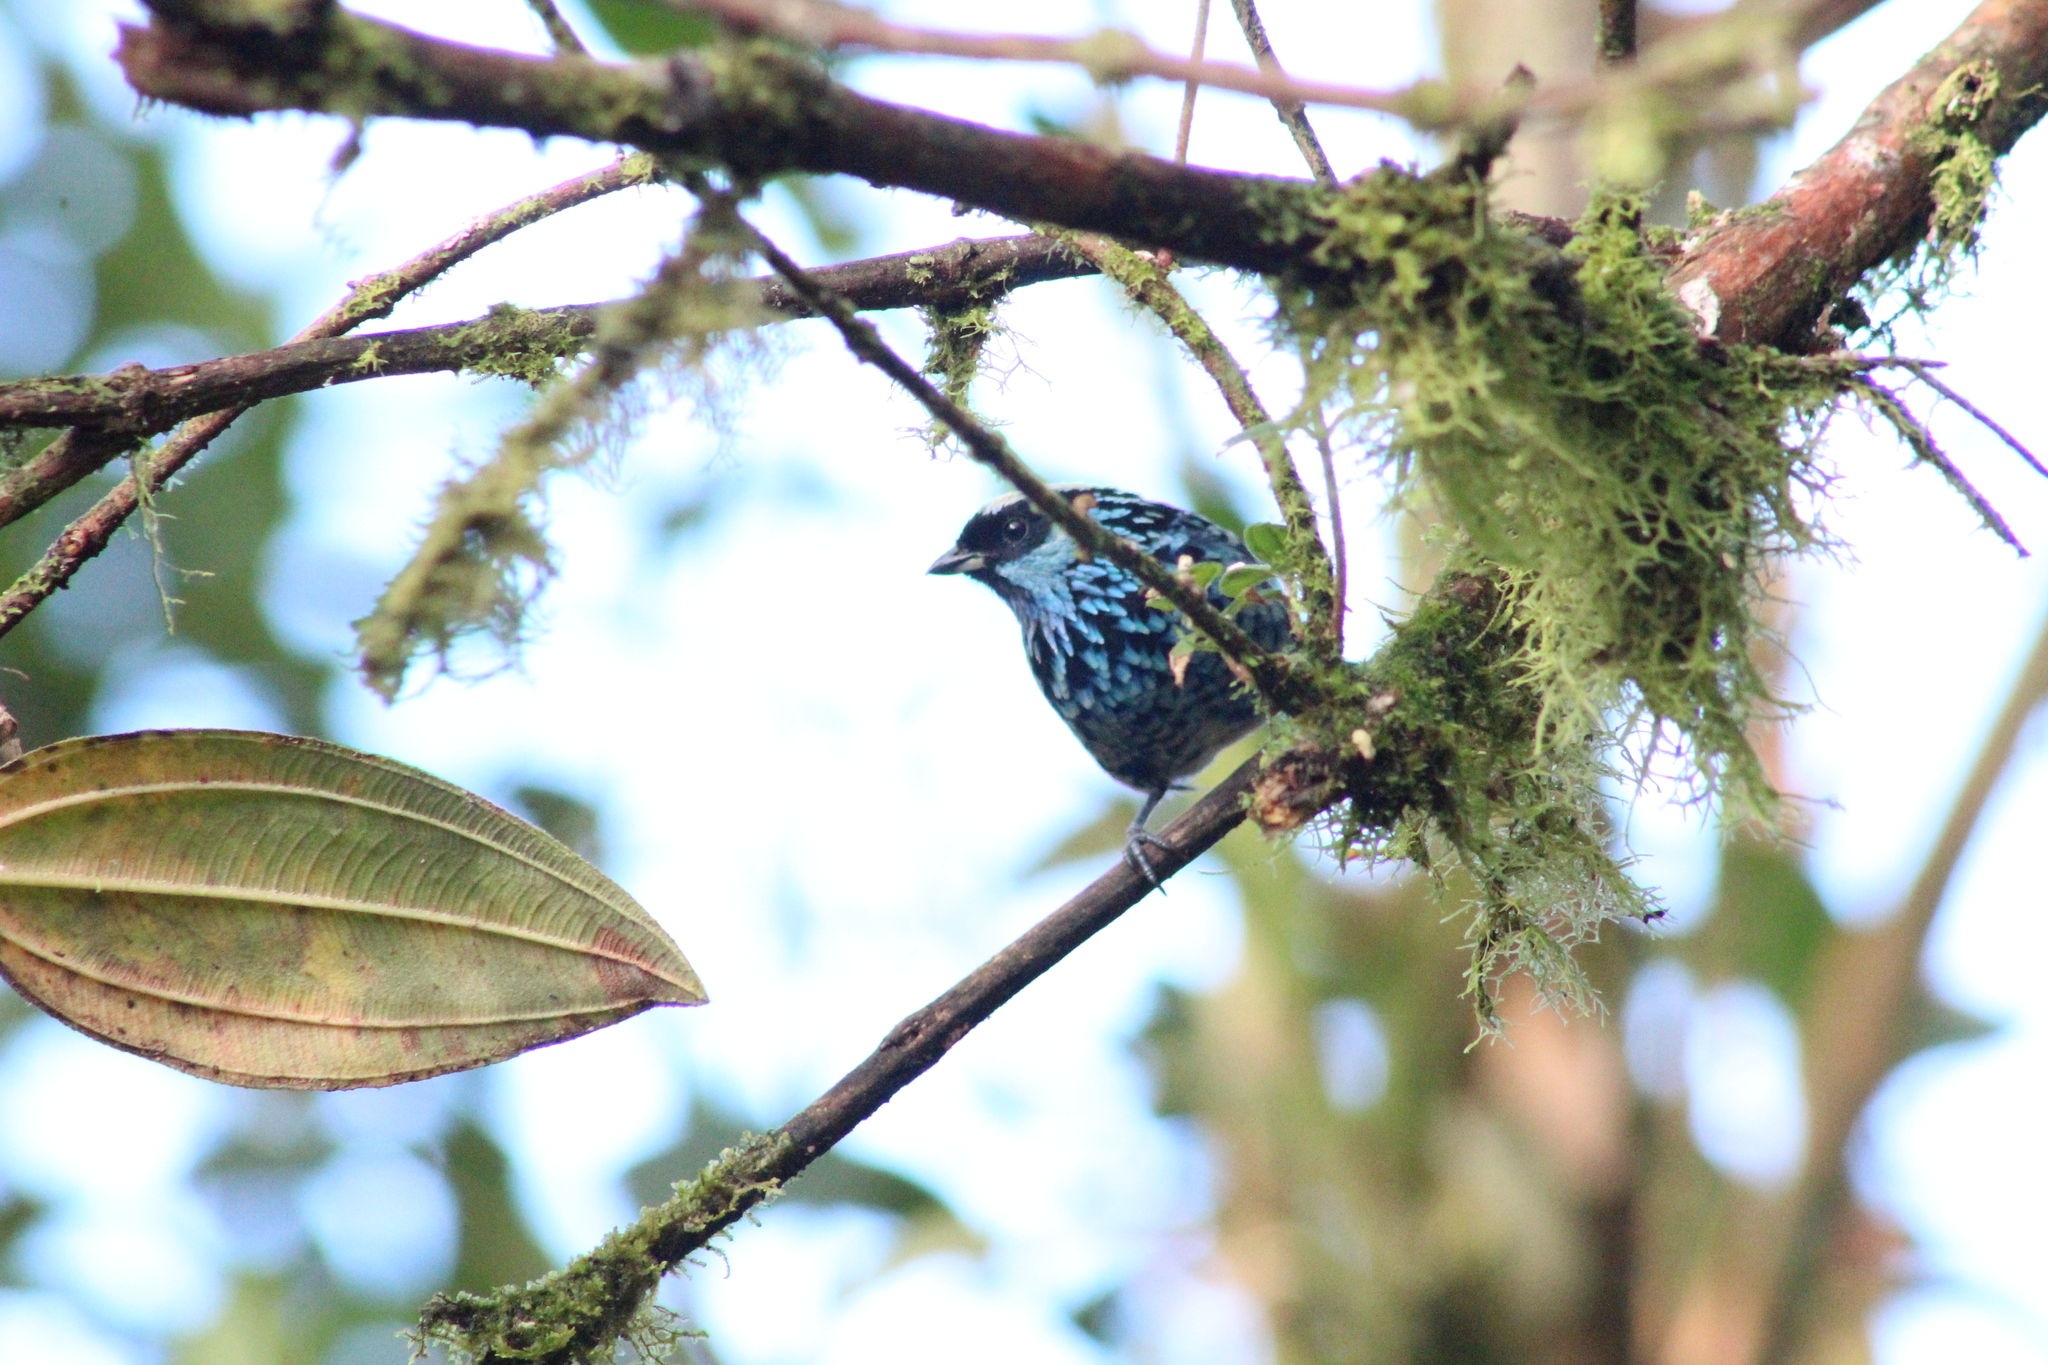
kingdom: Animalia
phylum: Chordata
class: Aves
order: Passeriformes
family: Thraupidae
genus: Tangara
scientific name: Tangara nigroviridis
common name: Beryl-spangled tanager
